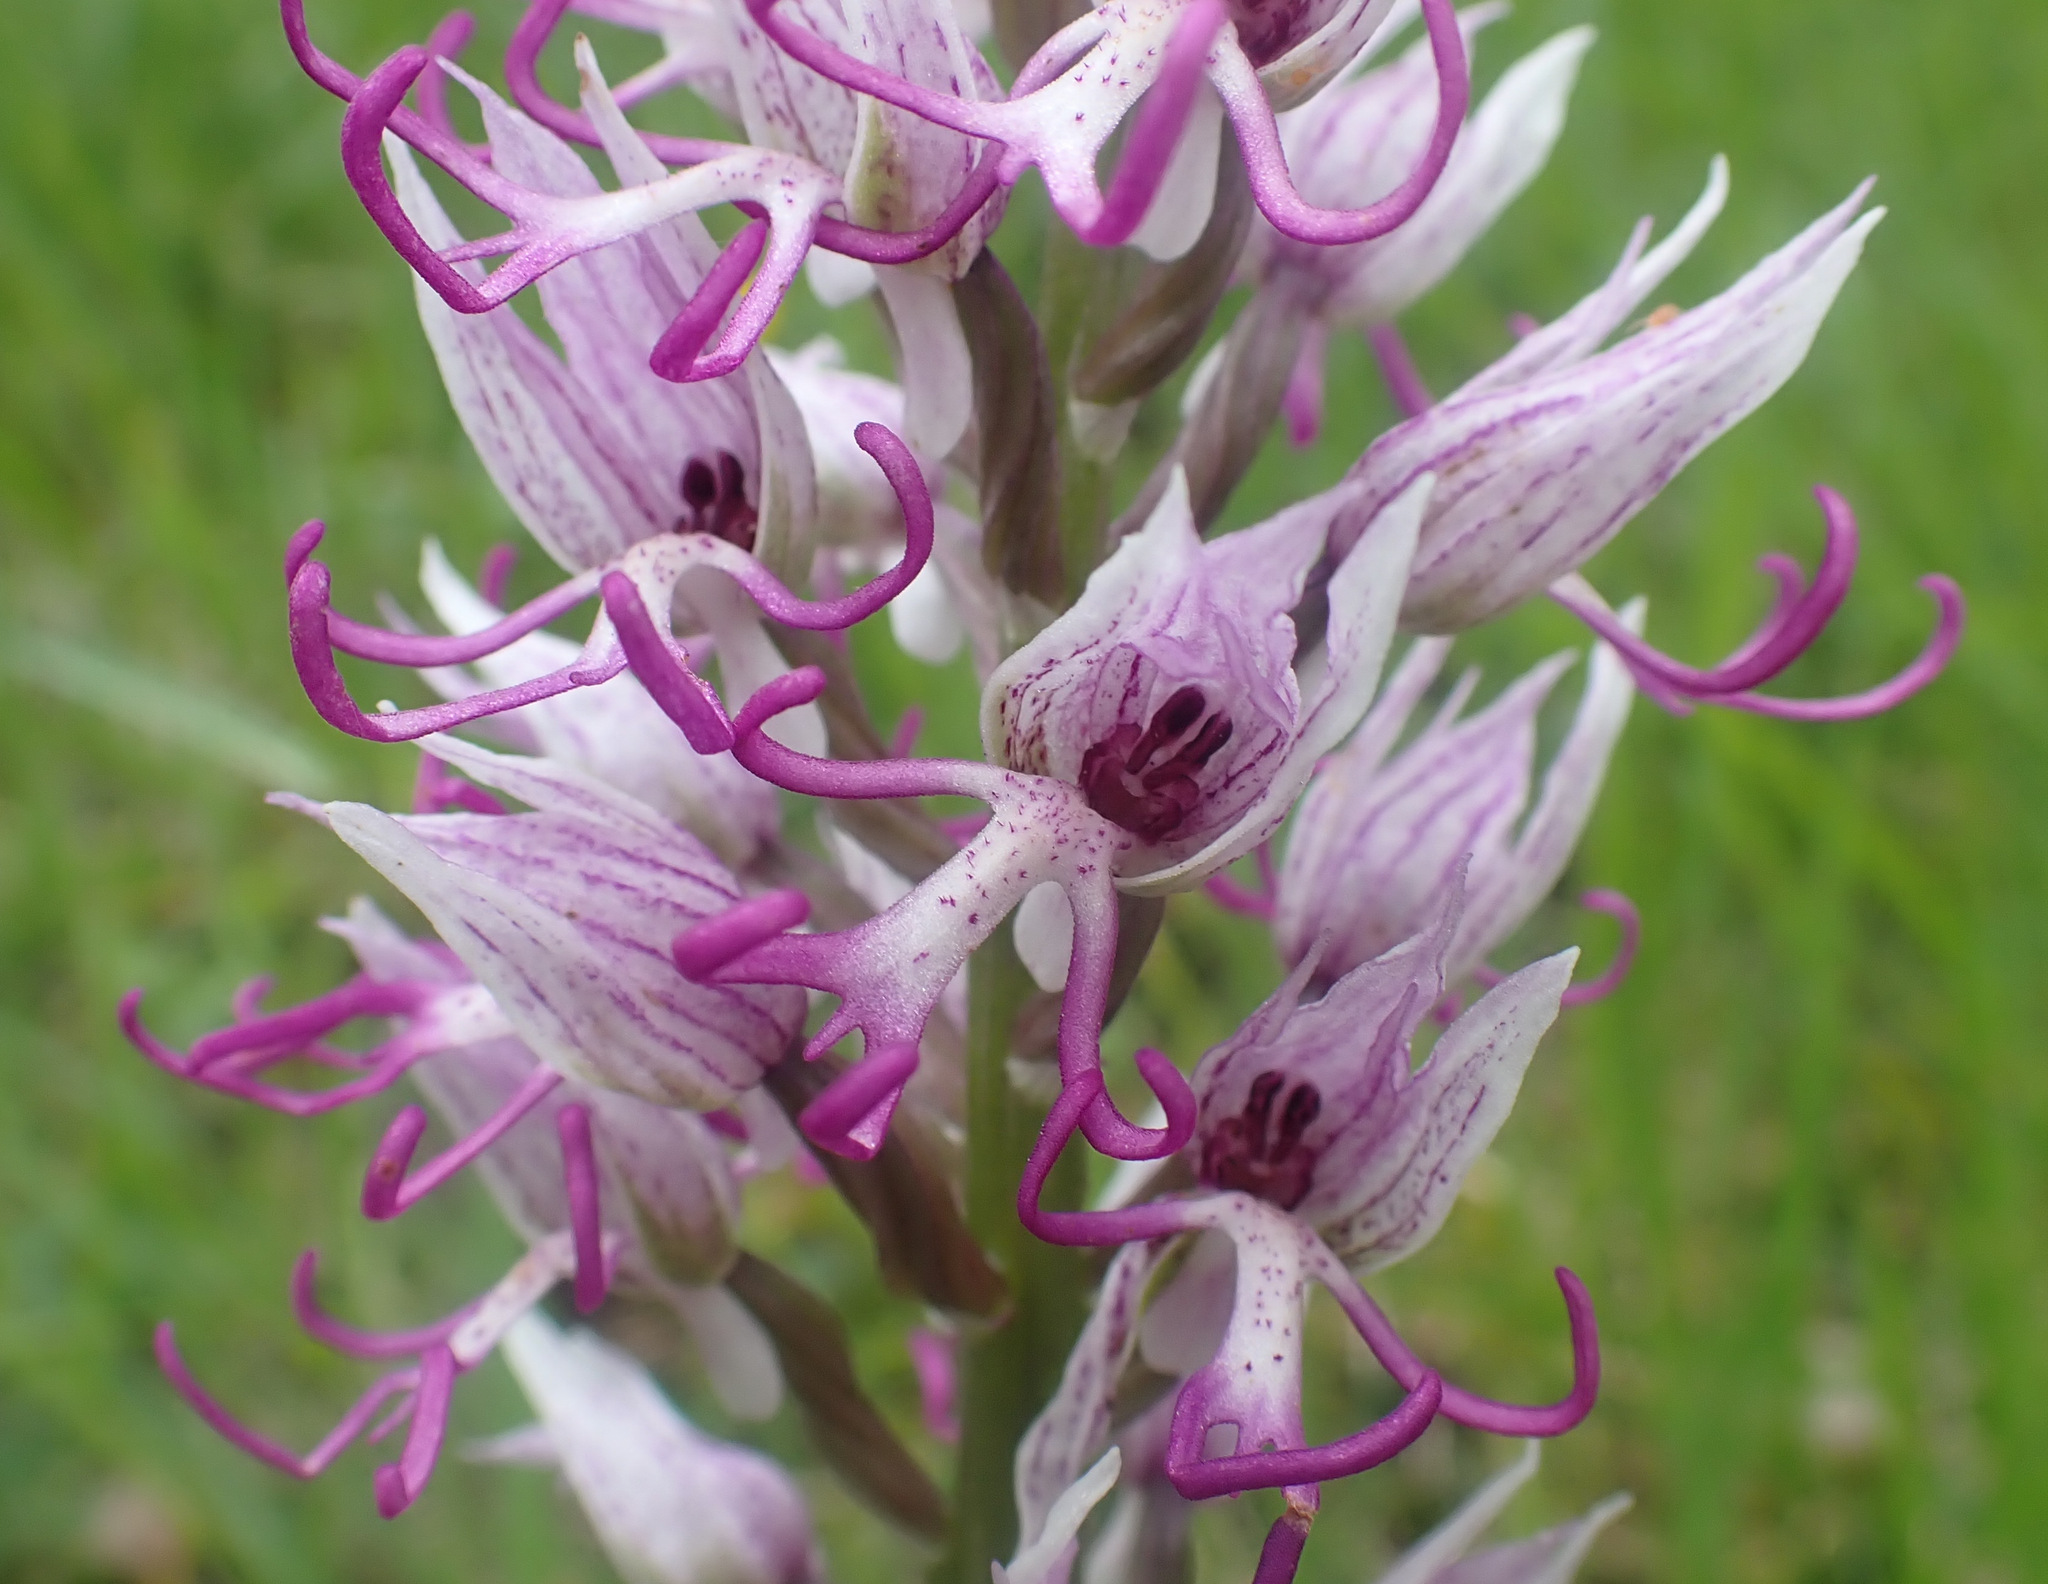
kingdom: Plantae
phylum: Tracheophyta
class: Liliopsida
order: Asparagales
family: Orchidaceae
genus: Orchis
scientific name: Orchis simia
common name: Monkey orchid
